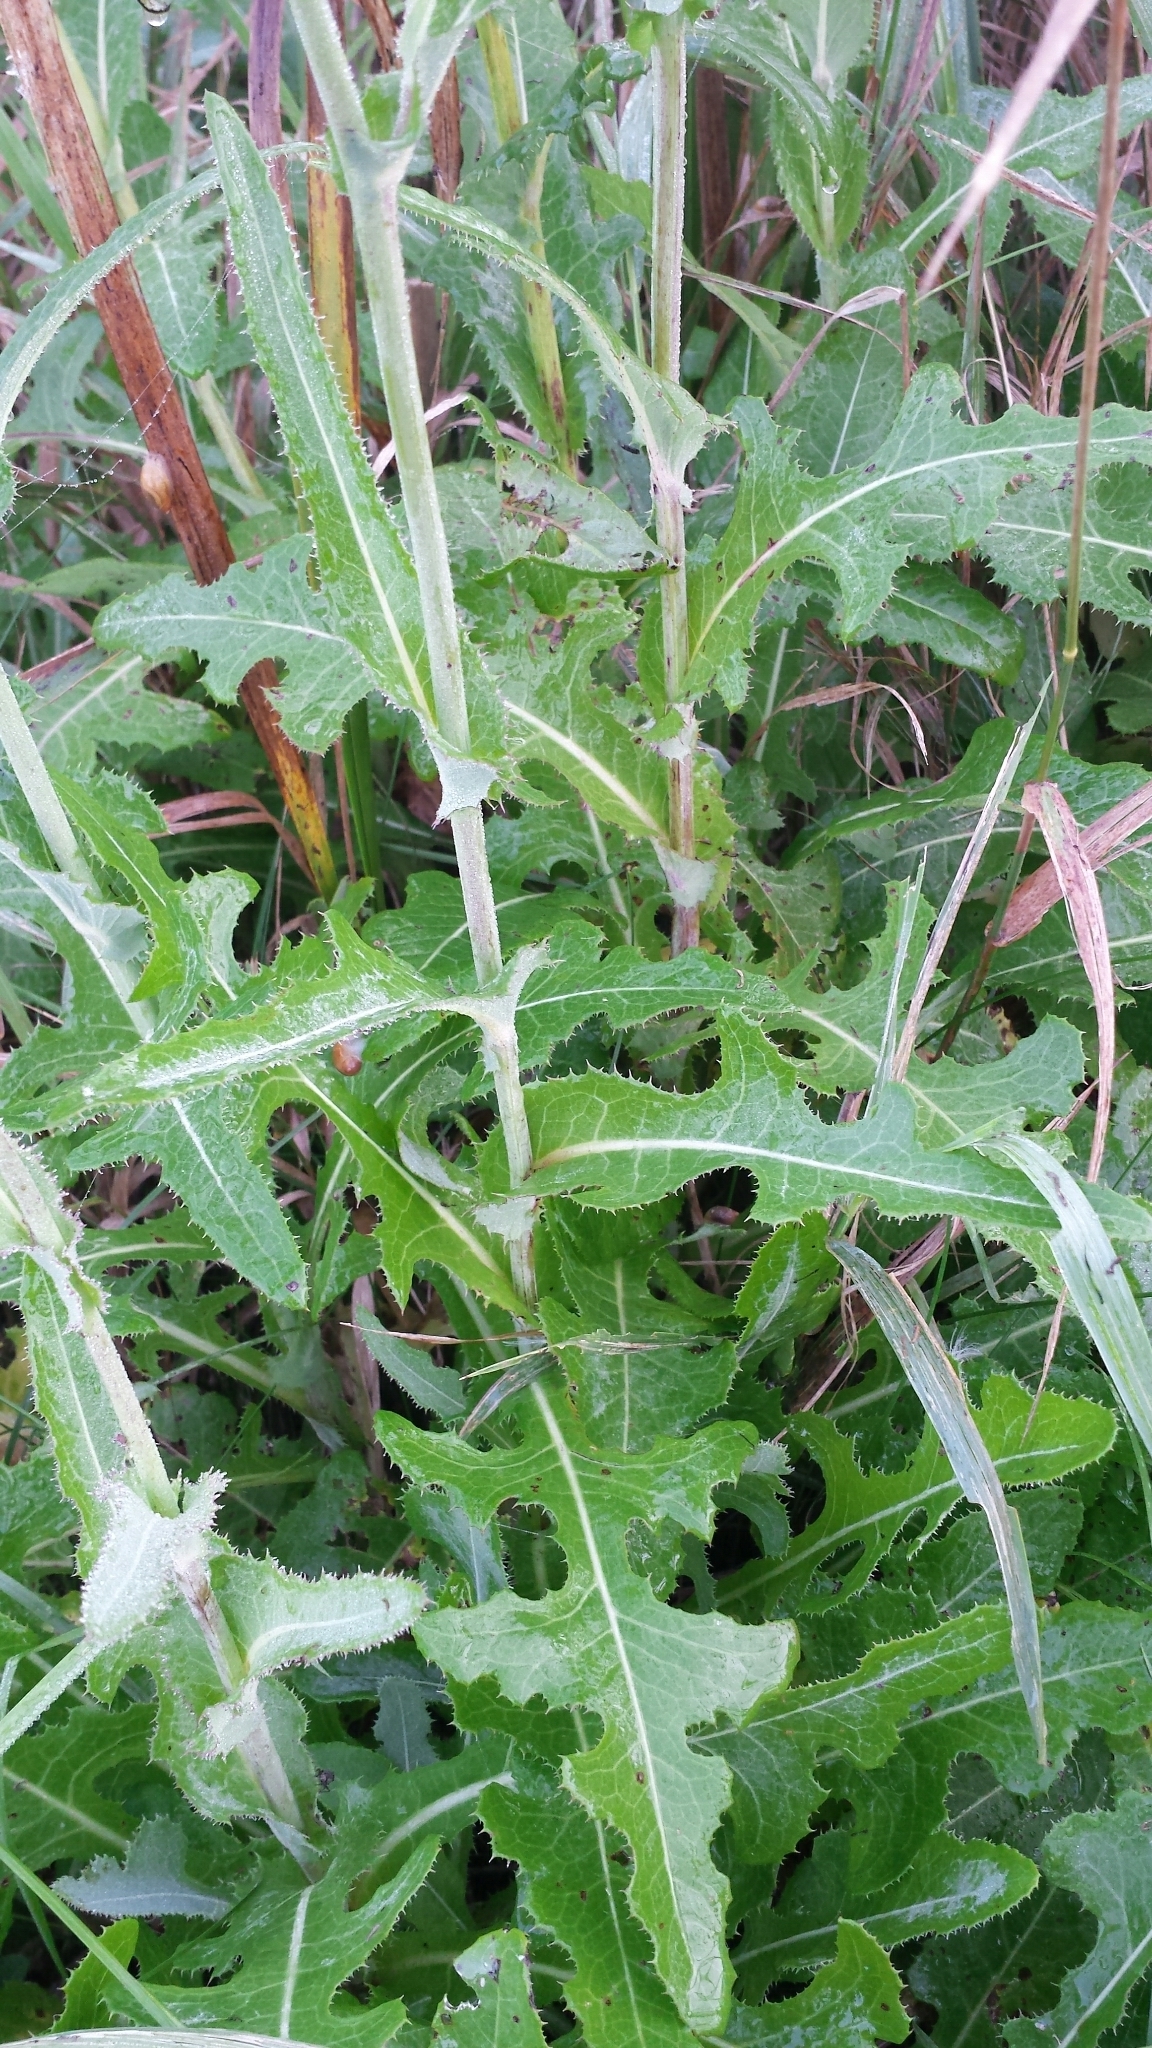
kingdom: Plantae
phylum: Tracheophyta
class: Magnoliopsida
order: Asterales
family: Asteraceae
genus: Sonchus
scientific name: Sonchus arvensis
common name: Perennial sow-thistle
